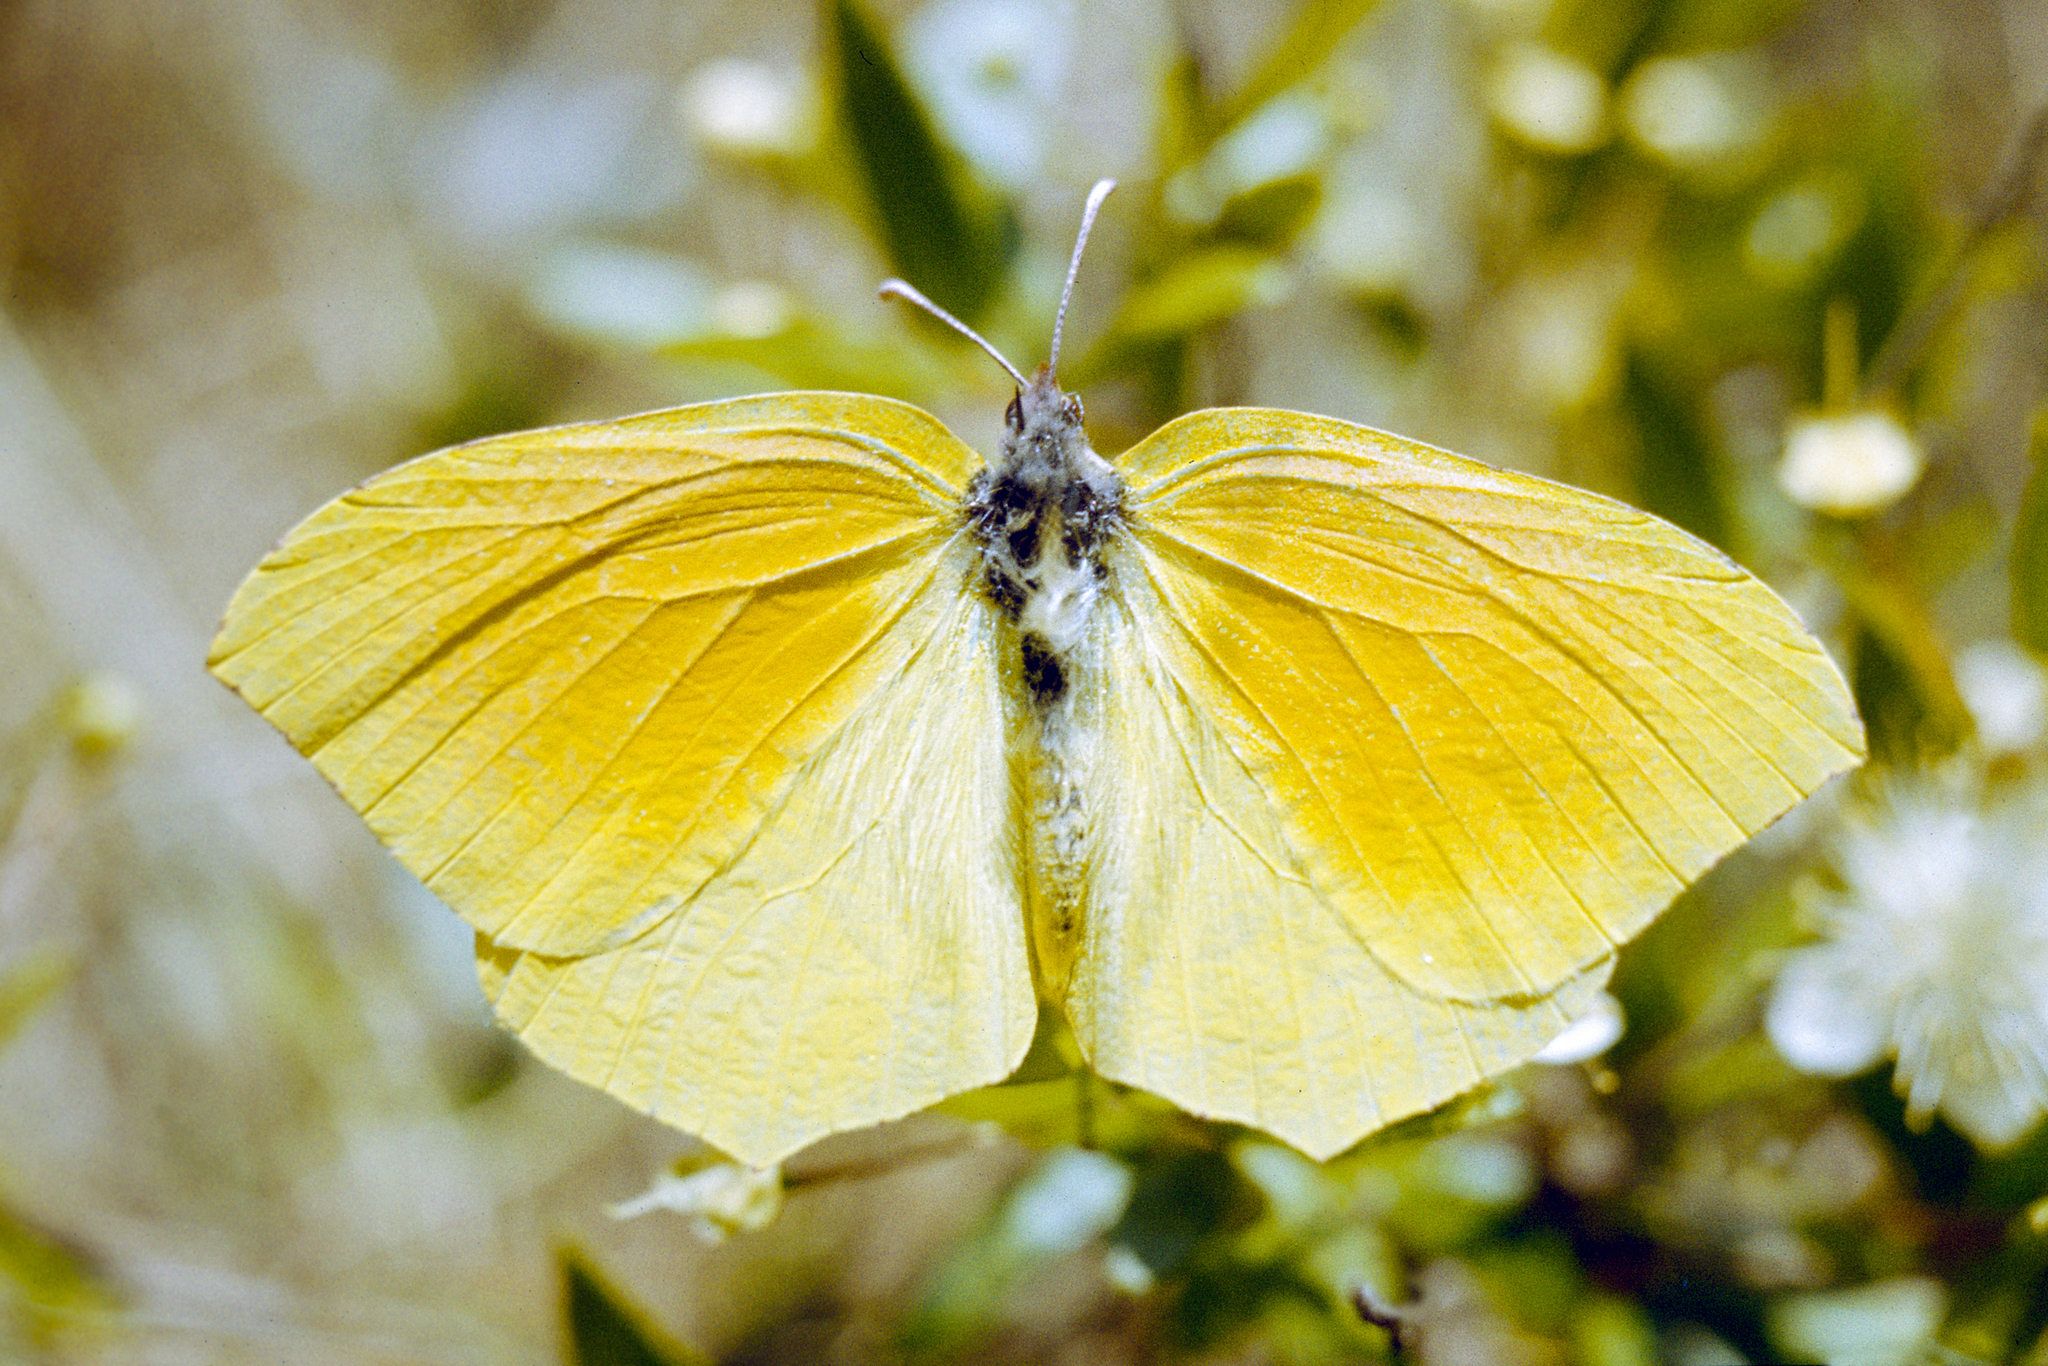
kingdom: Animalia
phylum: Arthropoda
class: Insecta
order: Lepidoptera
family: Pieridae
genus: Gonepteryx
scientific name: Gonepteryx cleopatra
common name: Cleopatra
